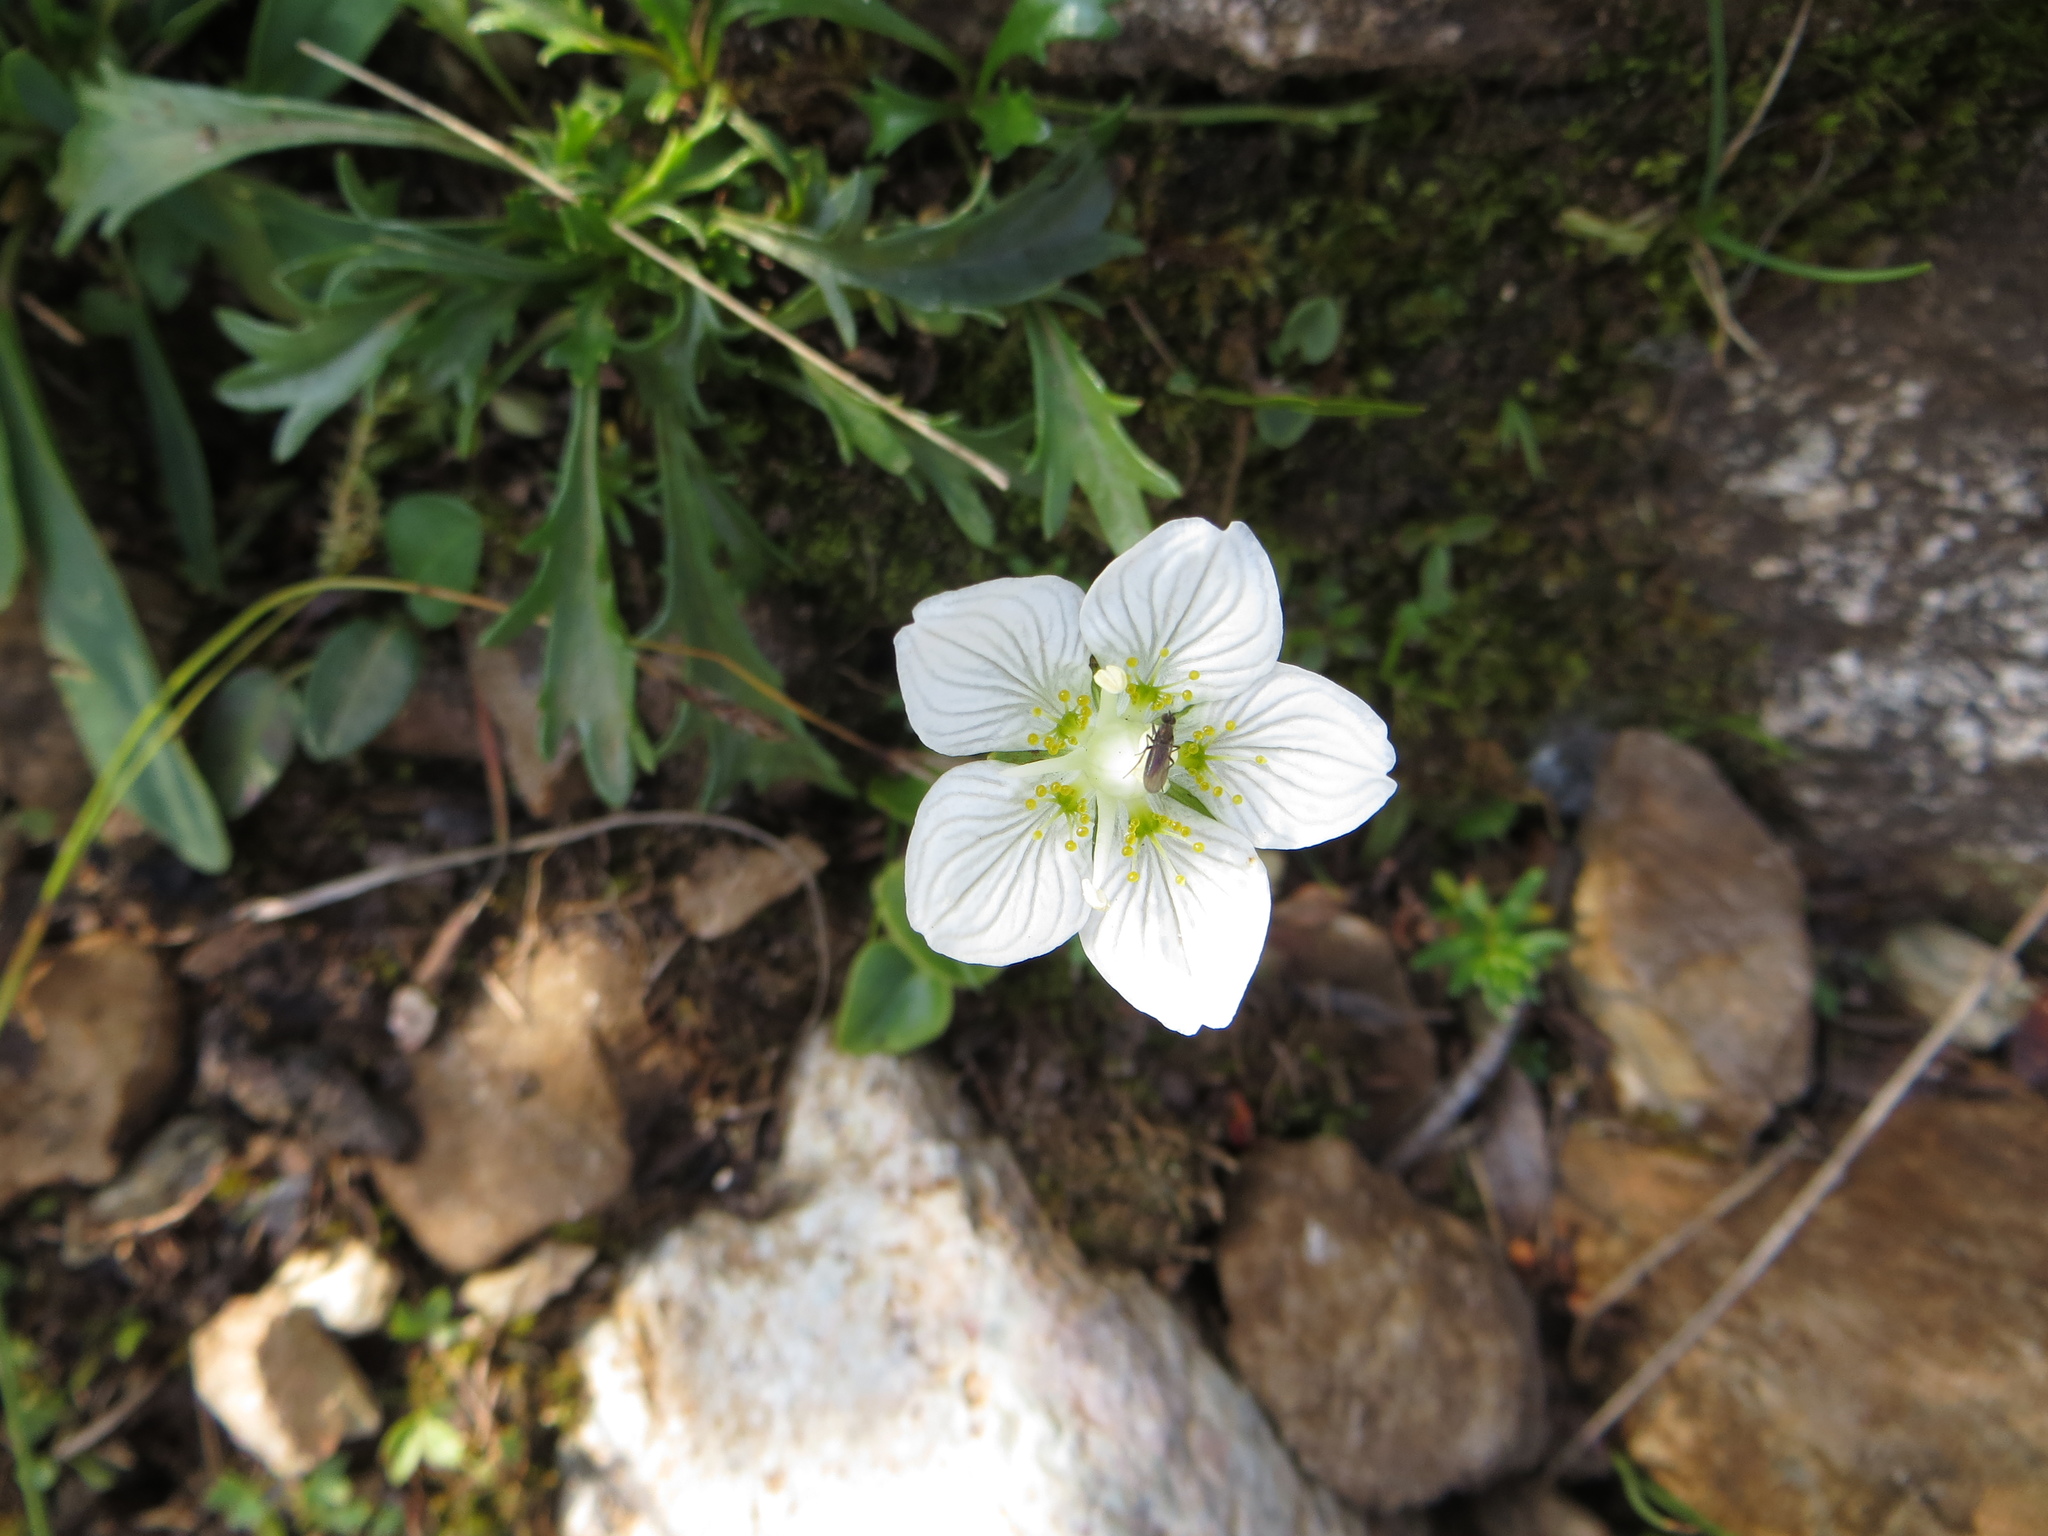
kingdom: Plantae
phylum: Tracheophyta
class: Magnoliopsida
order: Celastrales
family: Parnassiaceae
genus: Parnassia
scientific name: Parnassia palustris
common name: Grass-of-parnassus
